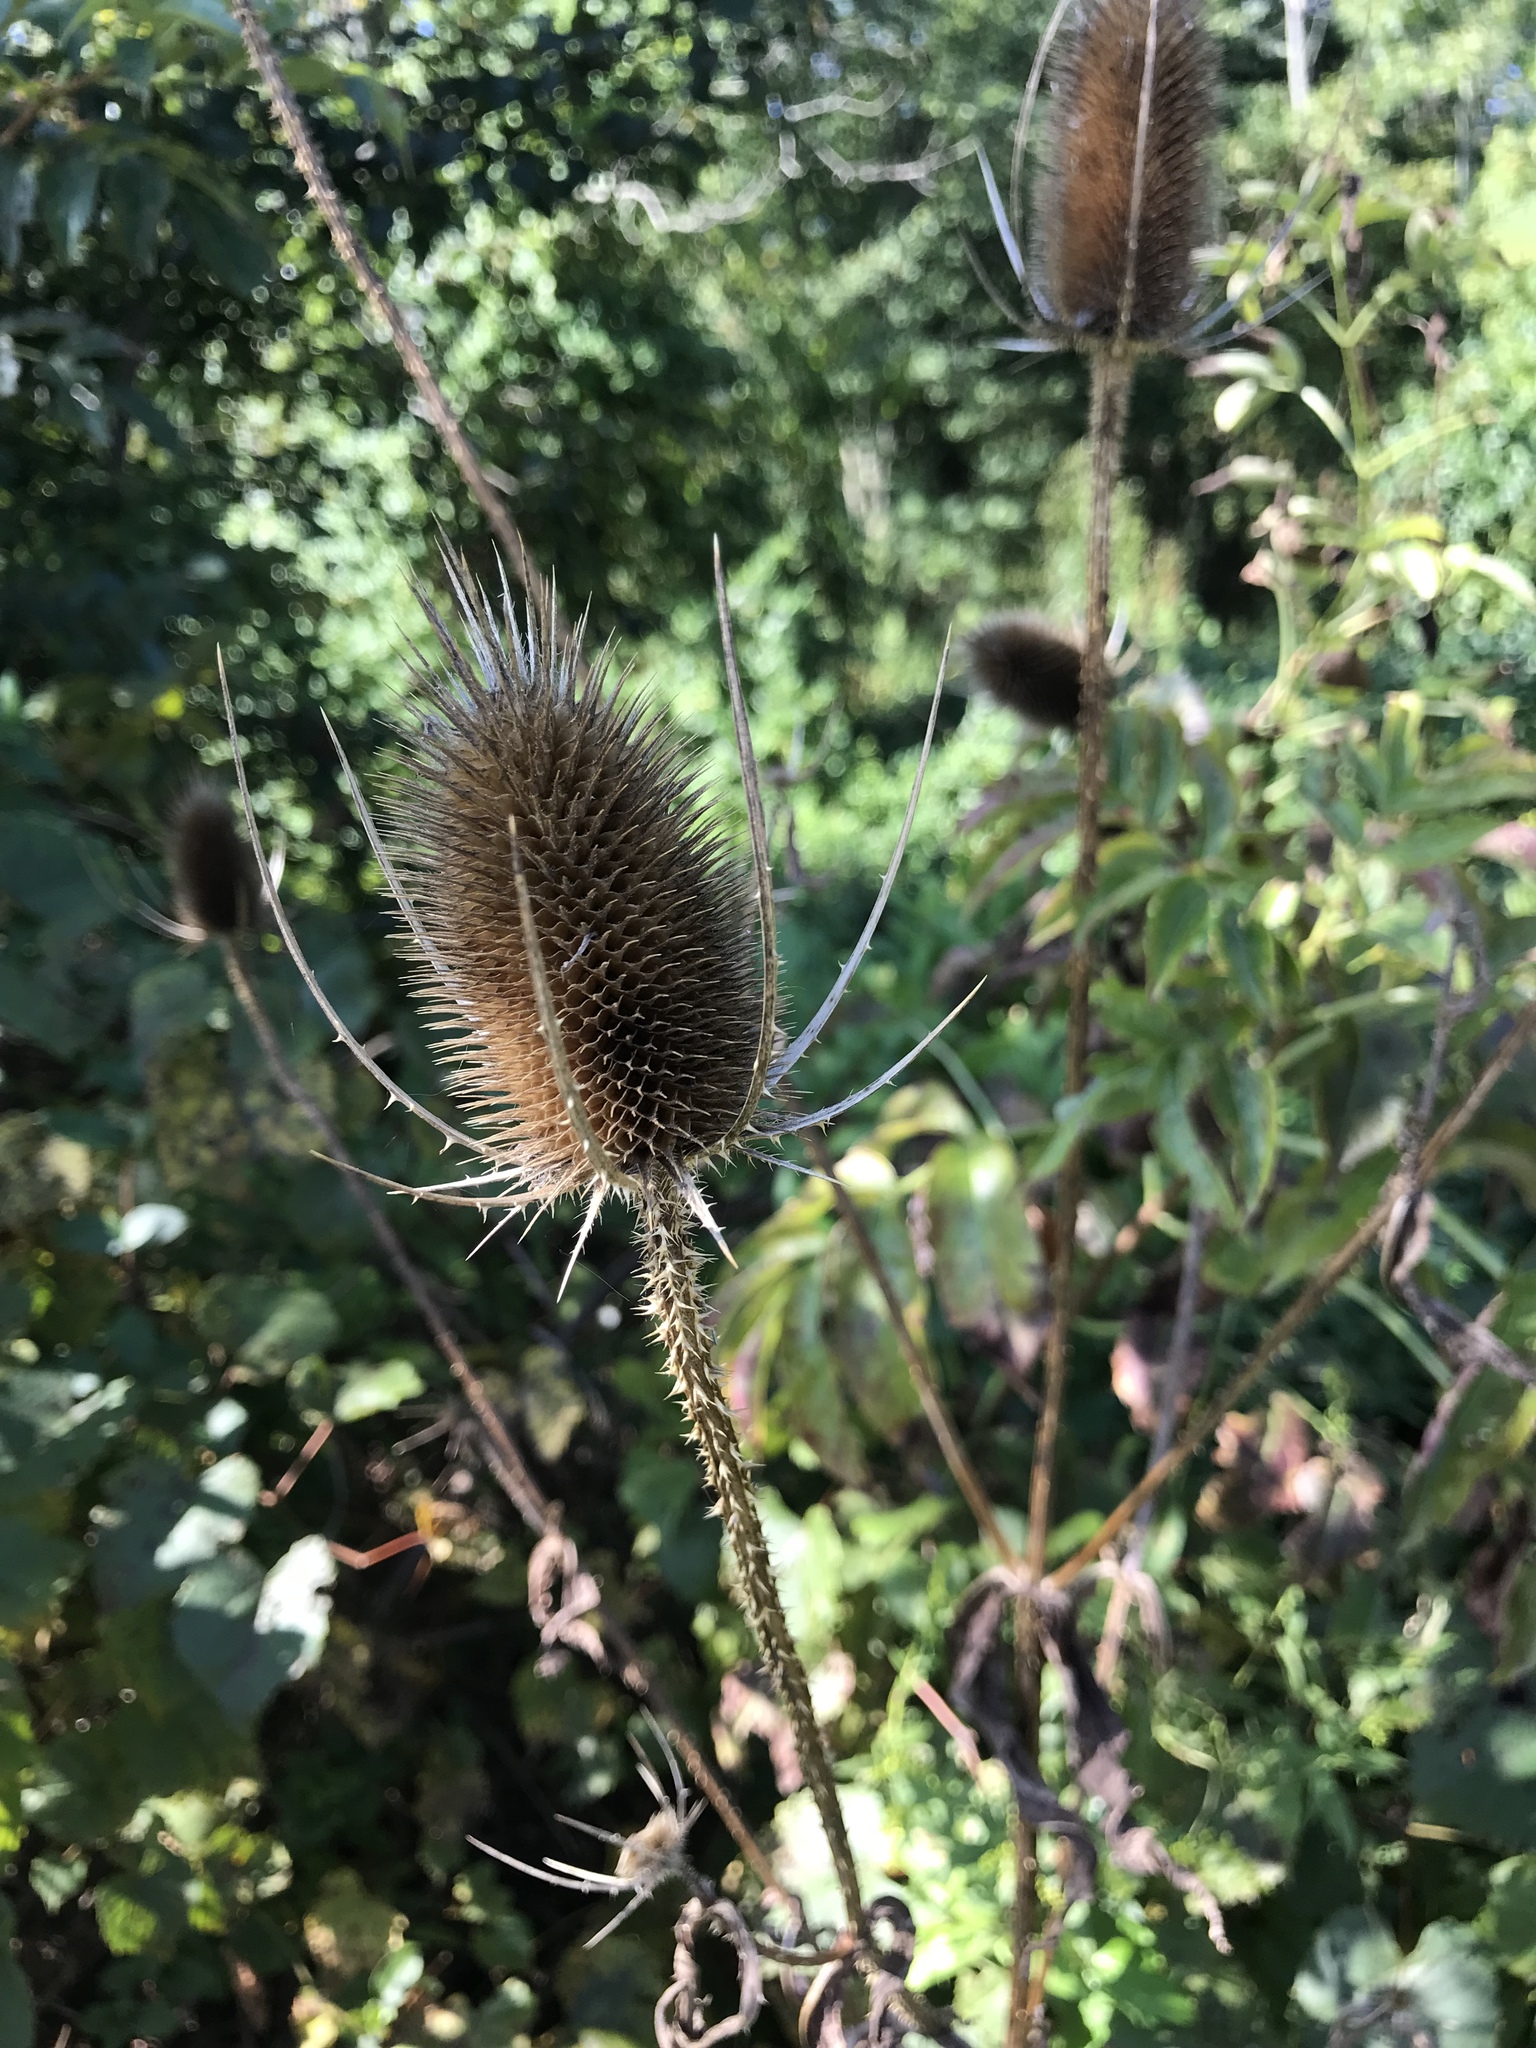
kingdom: Plantae
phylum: Tracheophyta
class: Magnoliopsida
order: Dipsacales
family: Caprifoliaceae
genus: Dipsacus
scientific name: Dipsacus fullonum
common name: Teasel
